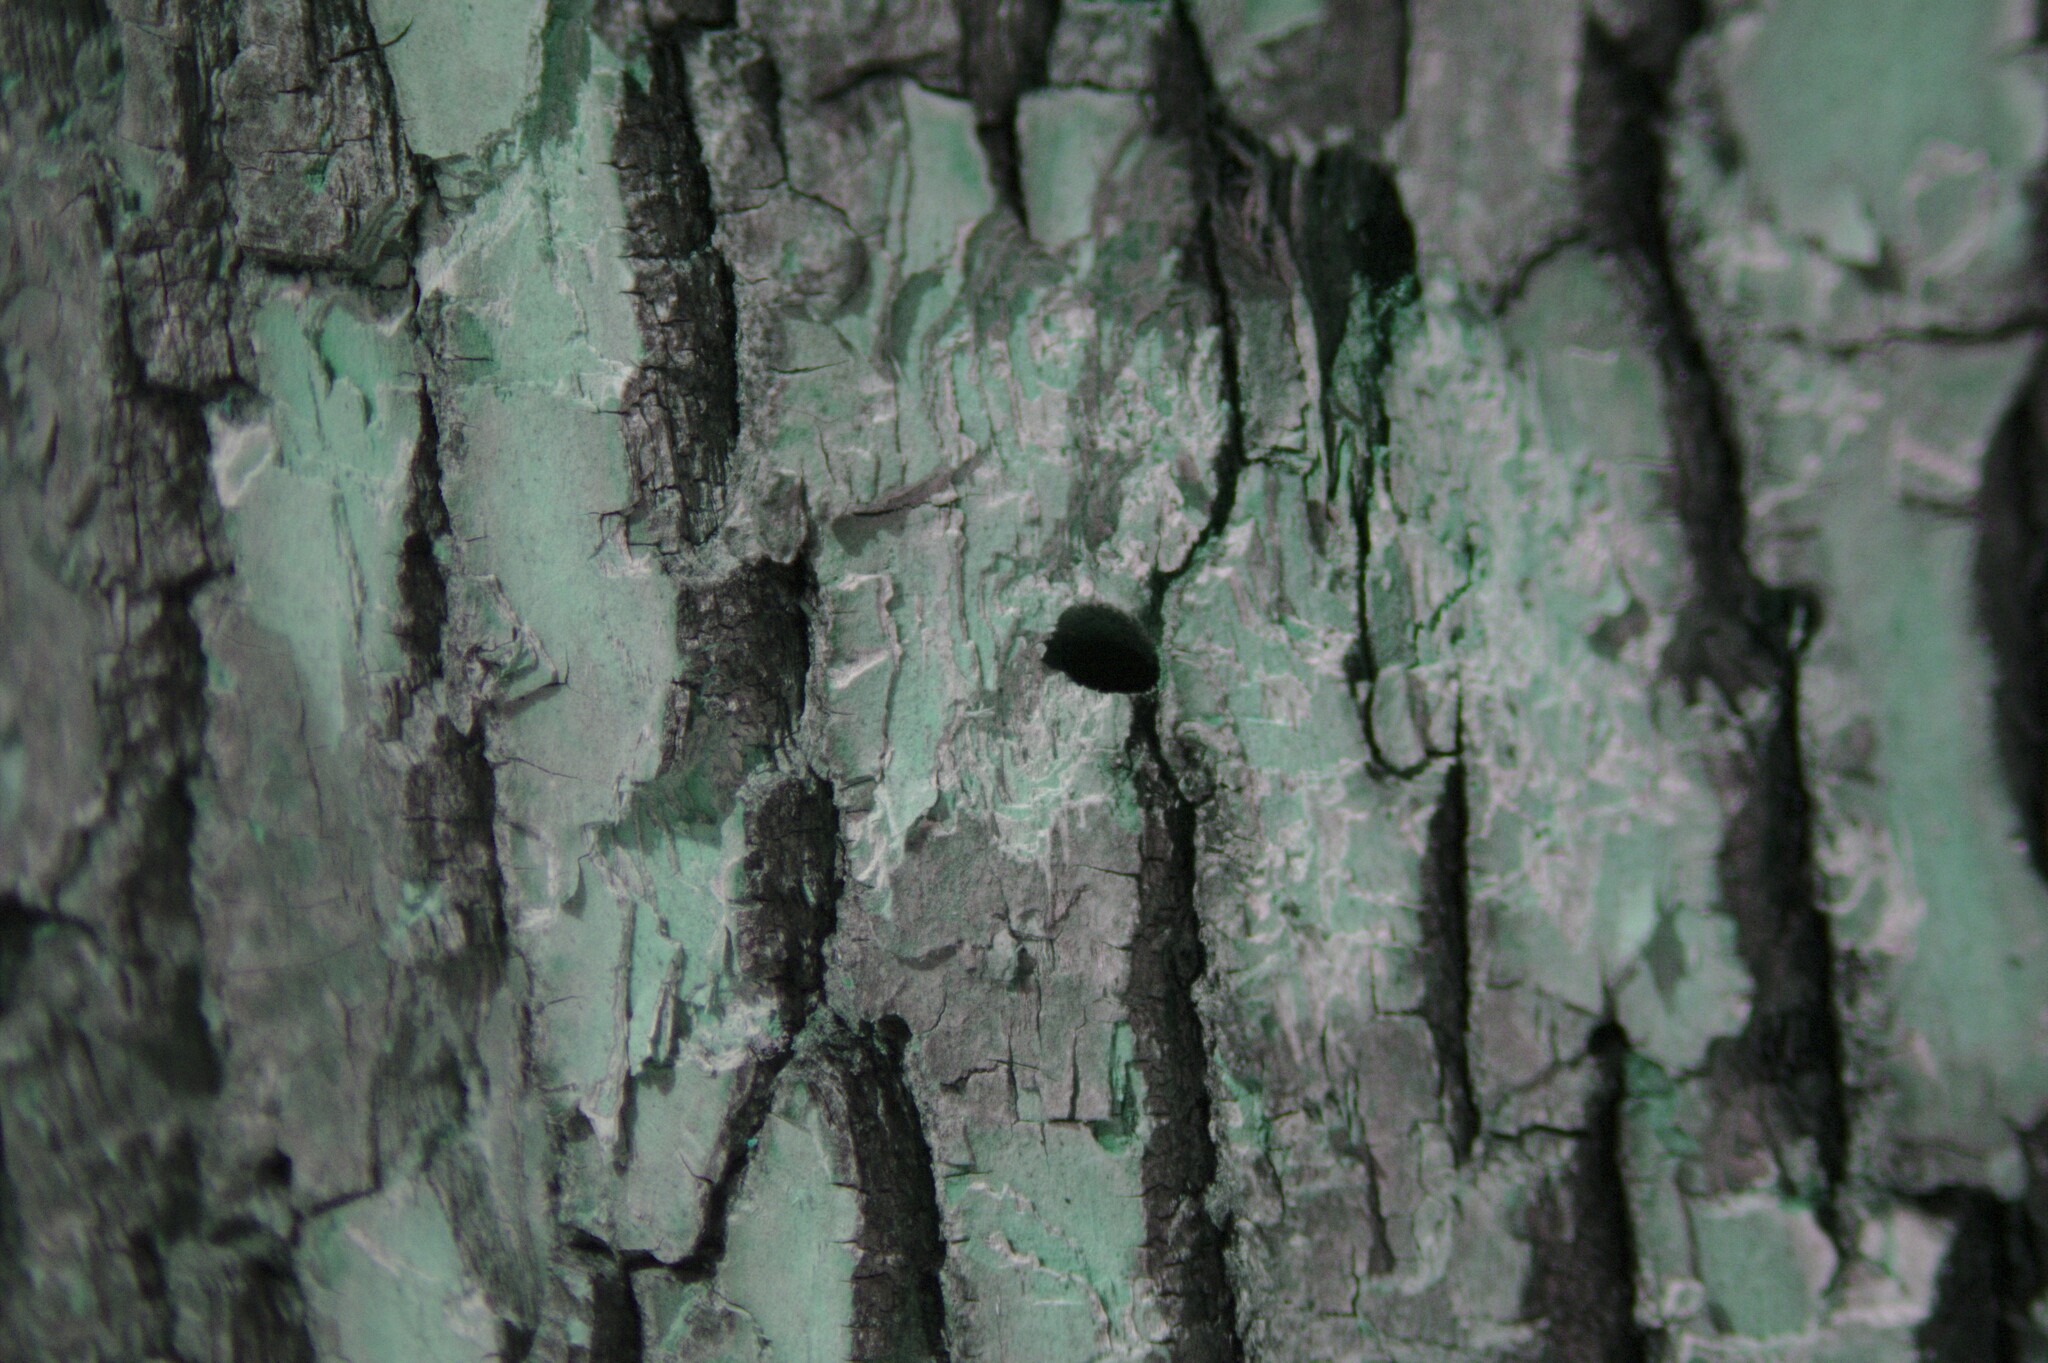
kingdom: Animalia
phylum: Arthropoda
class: Insecta
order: Coleoptera
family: Buprestidae
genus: Agrilus
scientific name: Agrilus planipennis
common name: Emerald ash borer
